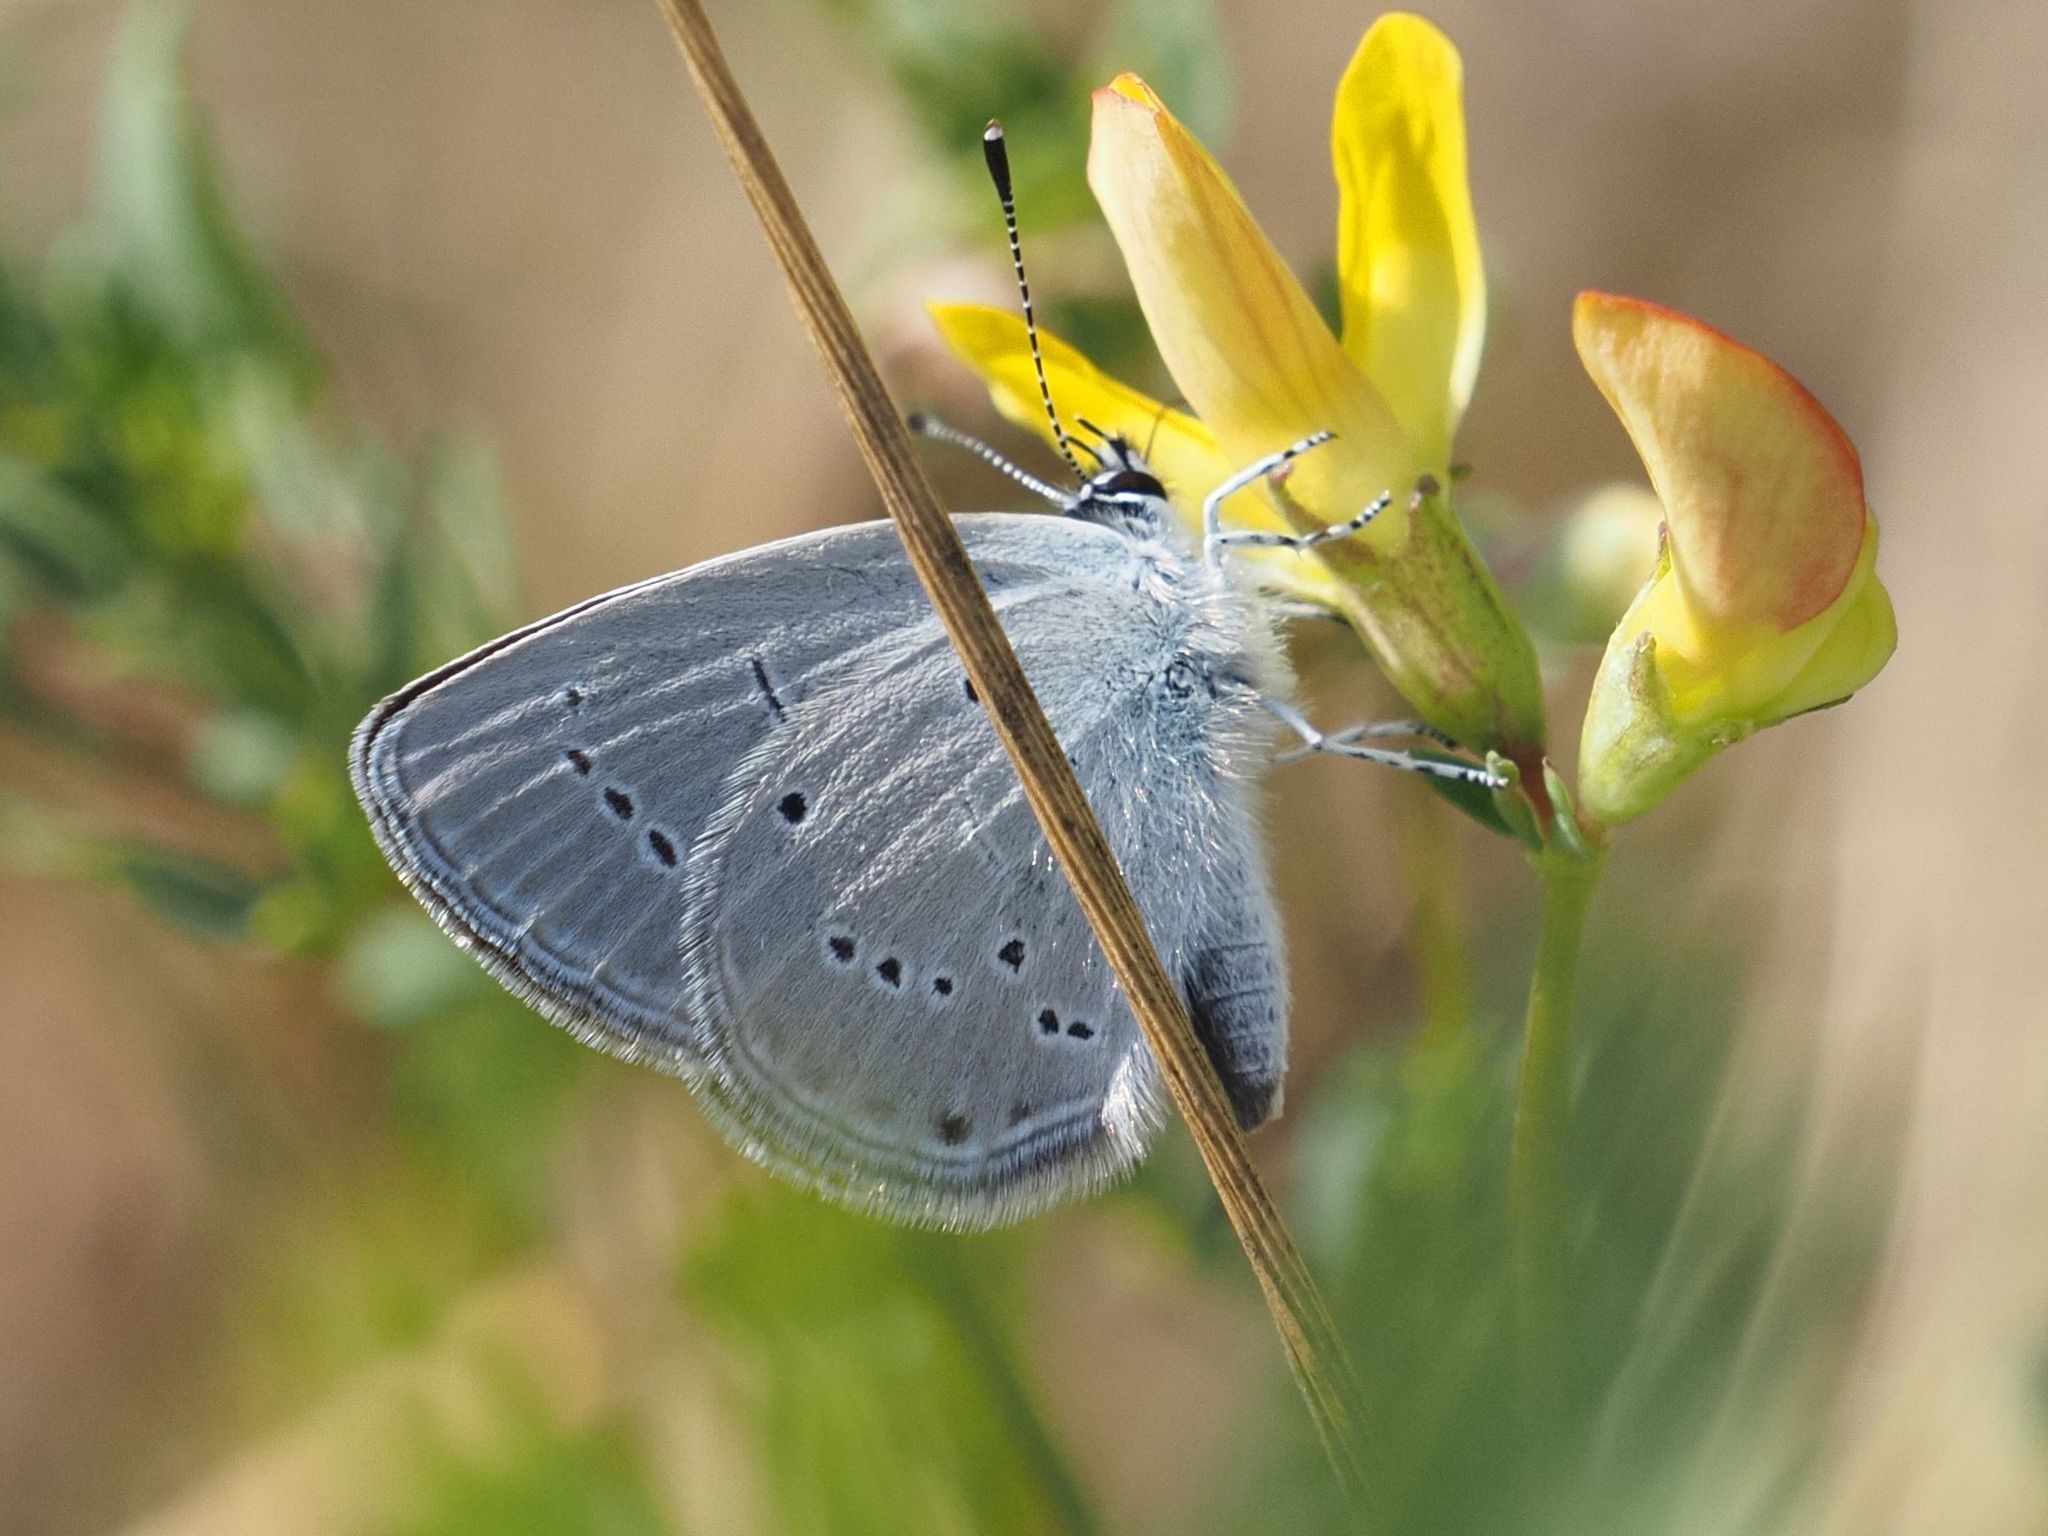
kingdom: Animalia
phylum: Arthropoda
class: Insecta
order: Lepidoptera
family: Lycaenidae
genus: Cupido
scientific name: Cupido minimus
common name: Small blue
